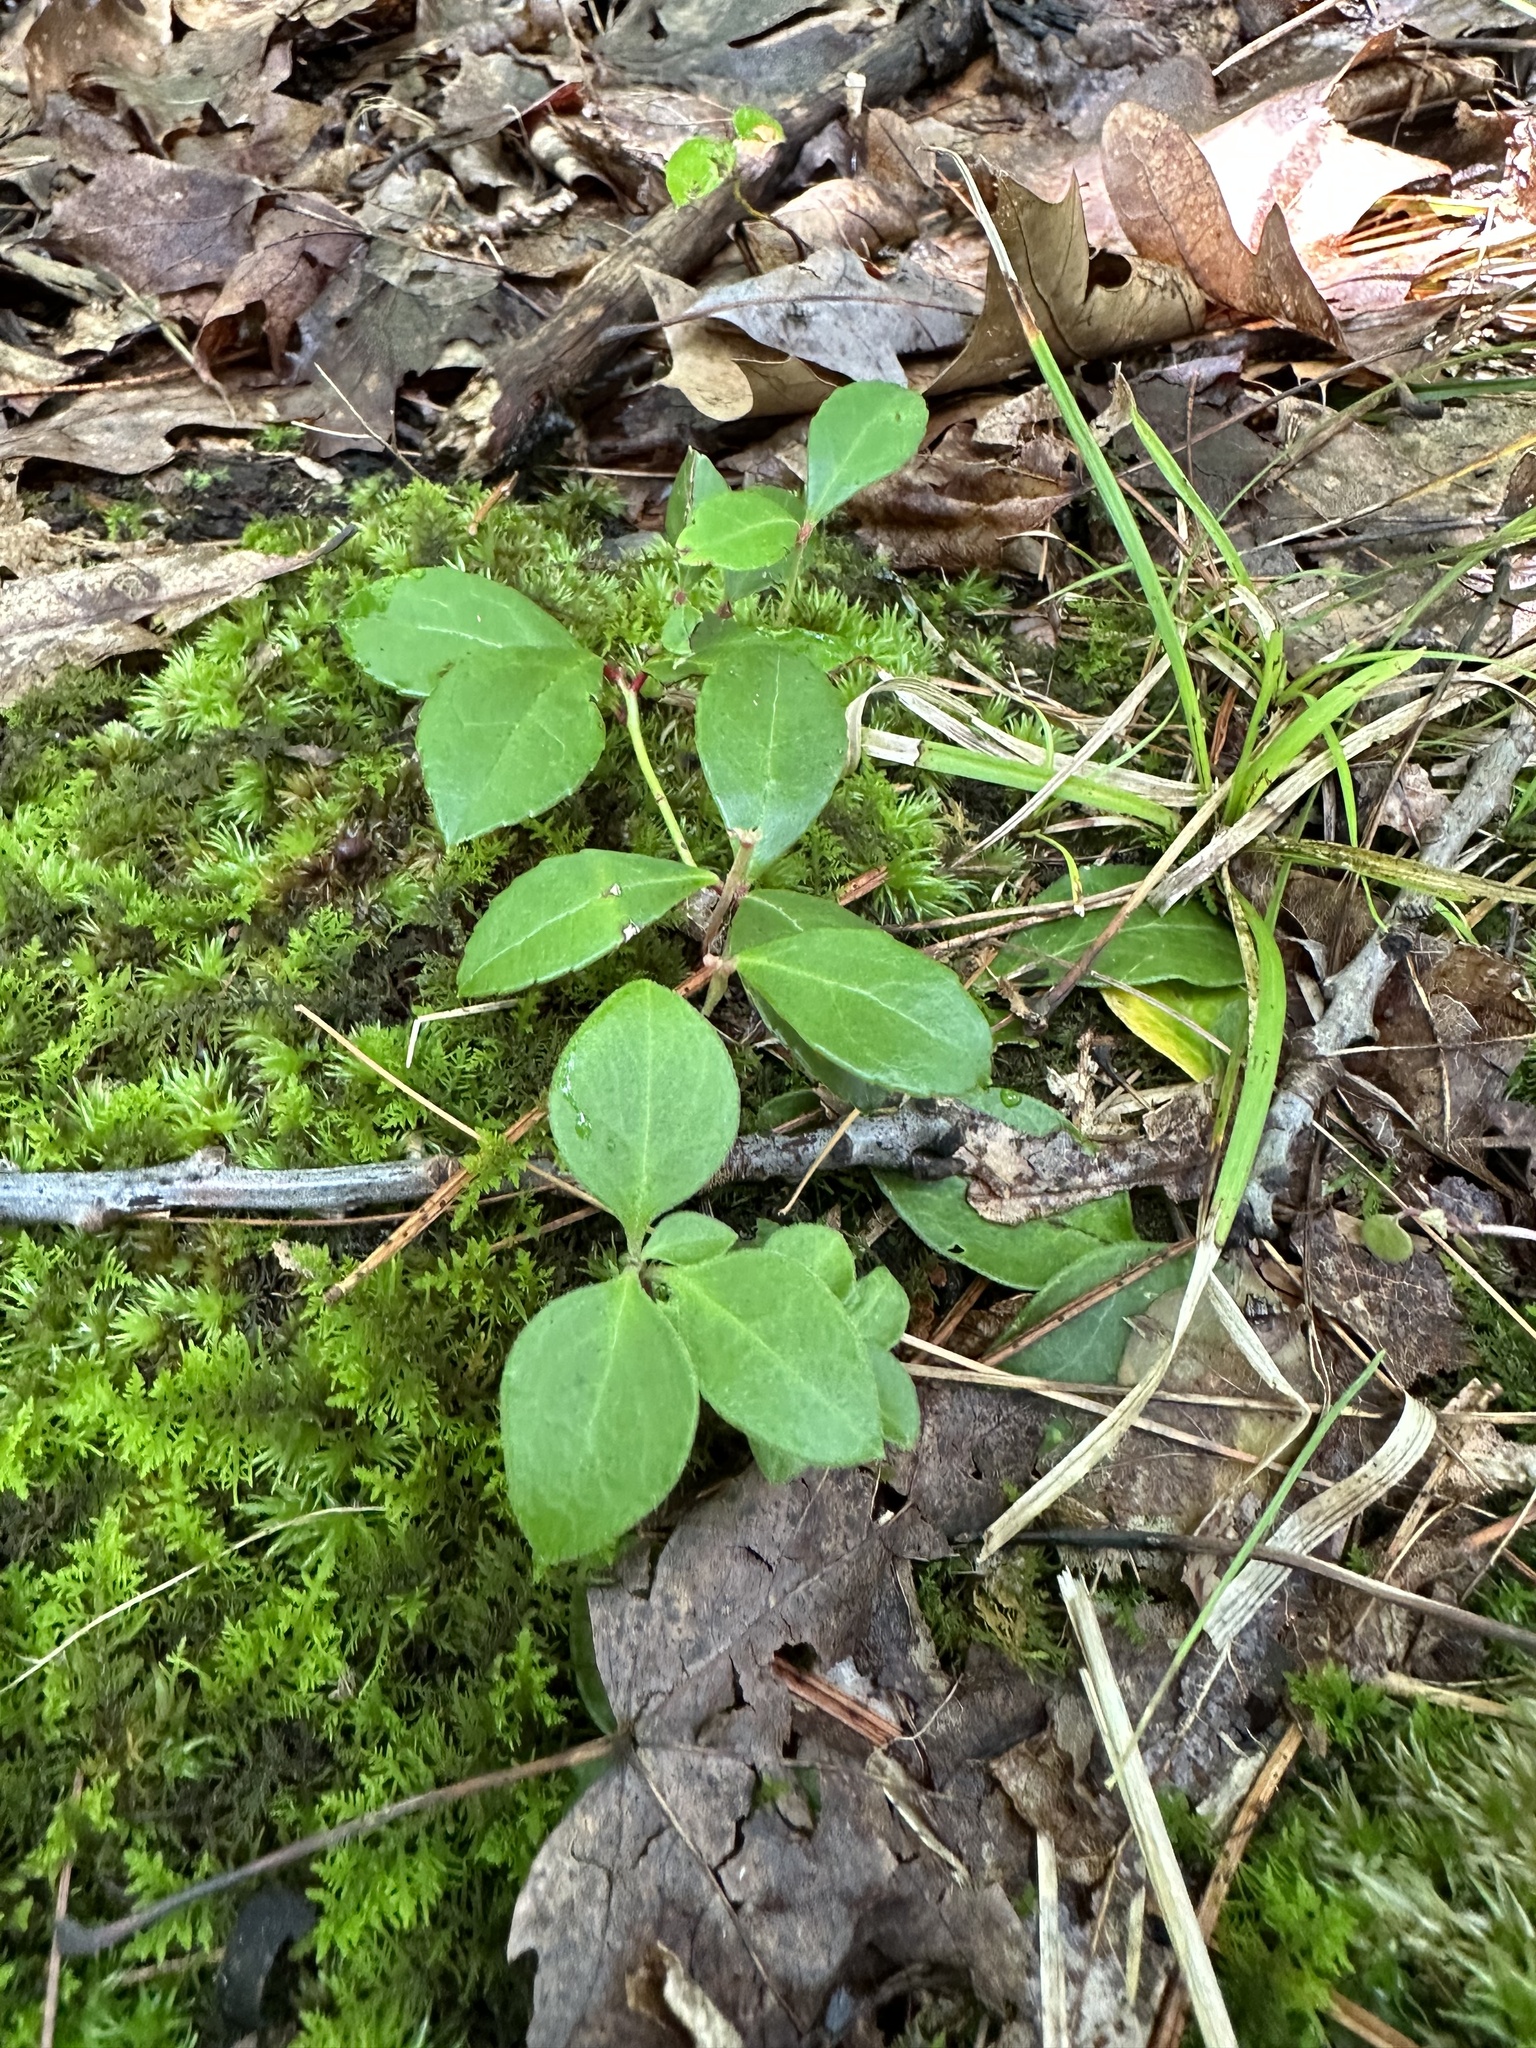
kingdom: Plantae
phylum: Tracheophyta
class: Magnoliopsida
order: Ericales
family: Ericaceae
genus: Gaultheria
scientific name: Gaultheria procumbens
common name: Checkerberry
